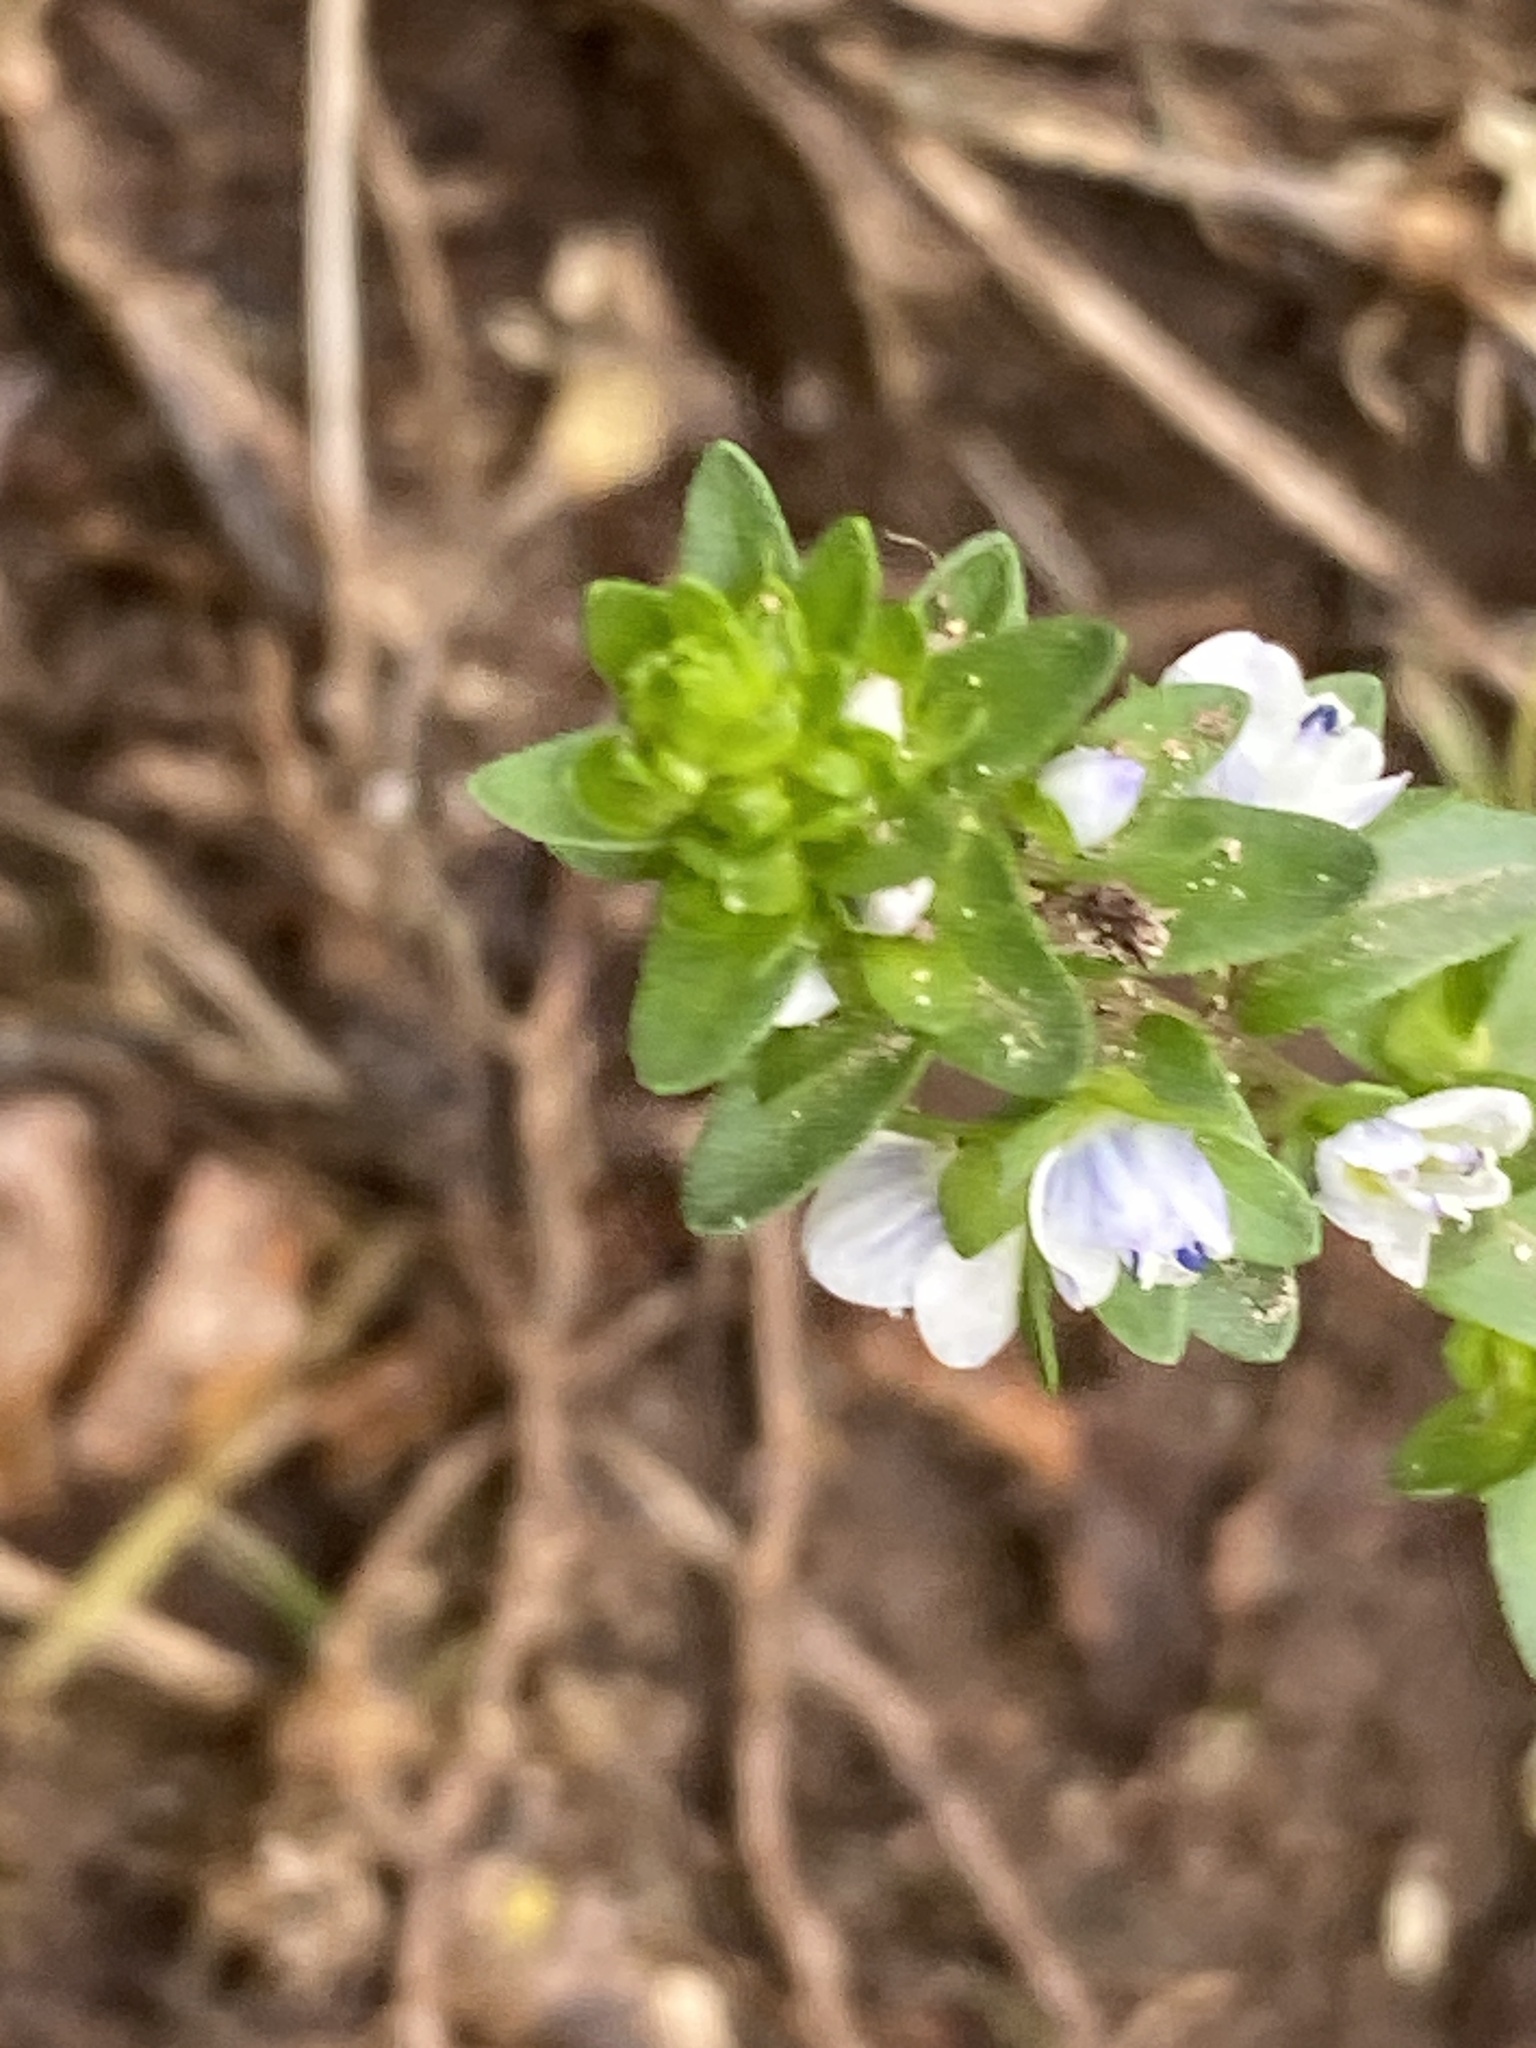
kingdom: Plantae
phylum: Tracheophyta
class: Magnoliopsida
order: Lamiales
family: Plantaginaceae
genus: Veronica
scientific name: Veronica serpyllifolia
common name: Thyme-leaved speedwell
